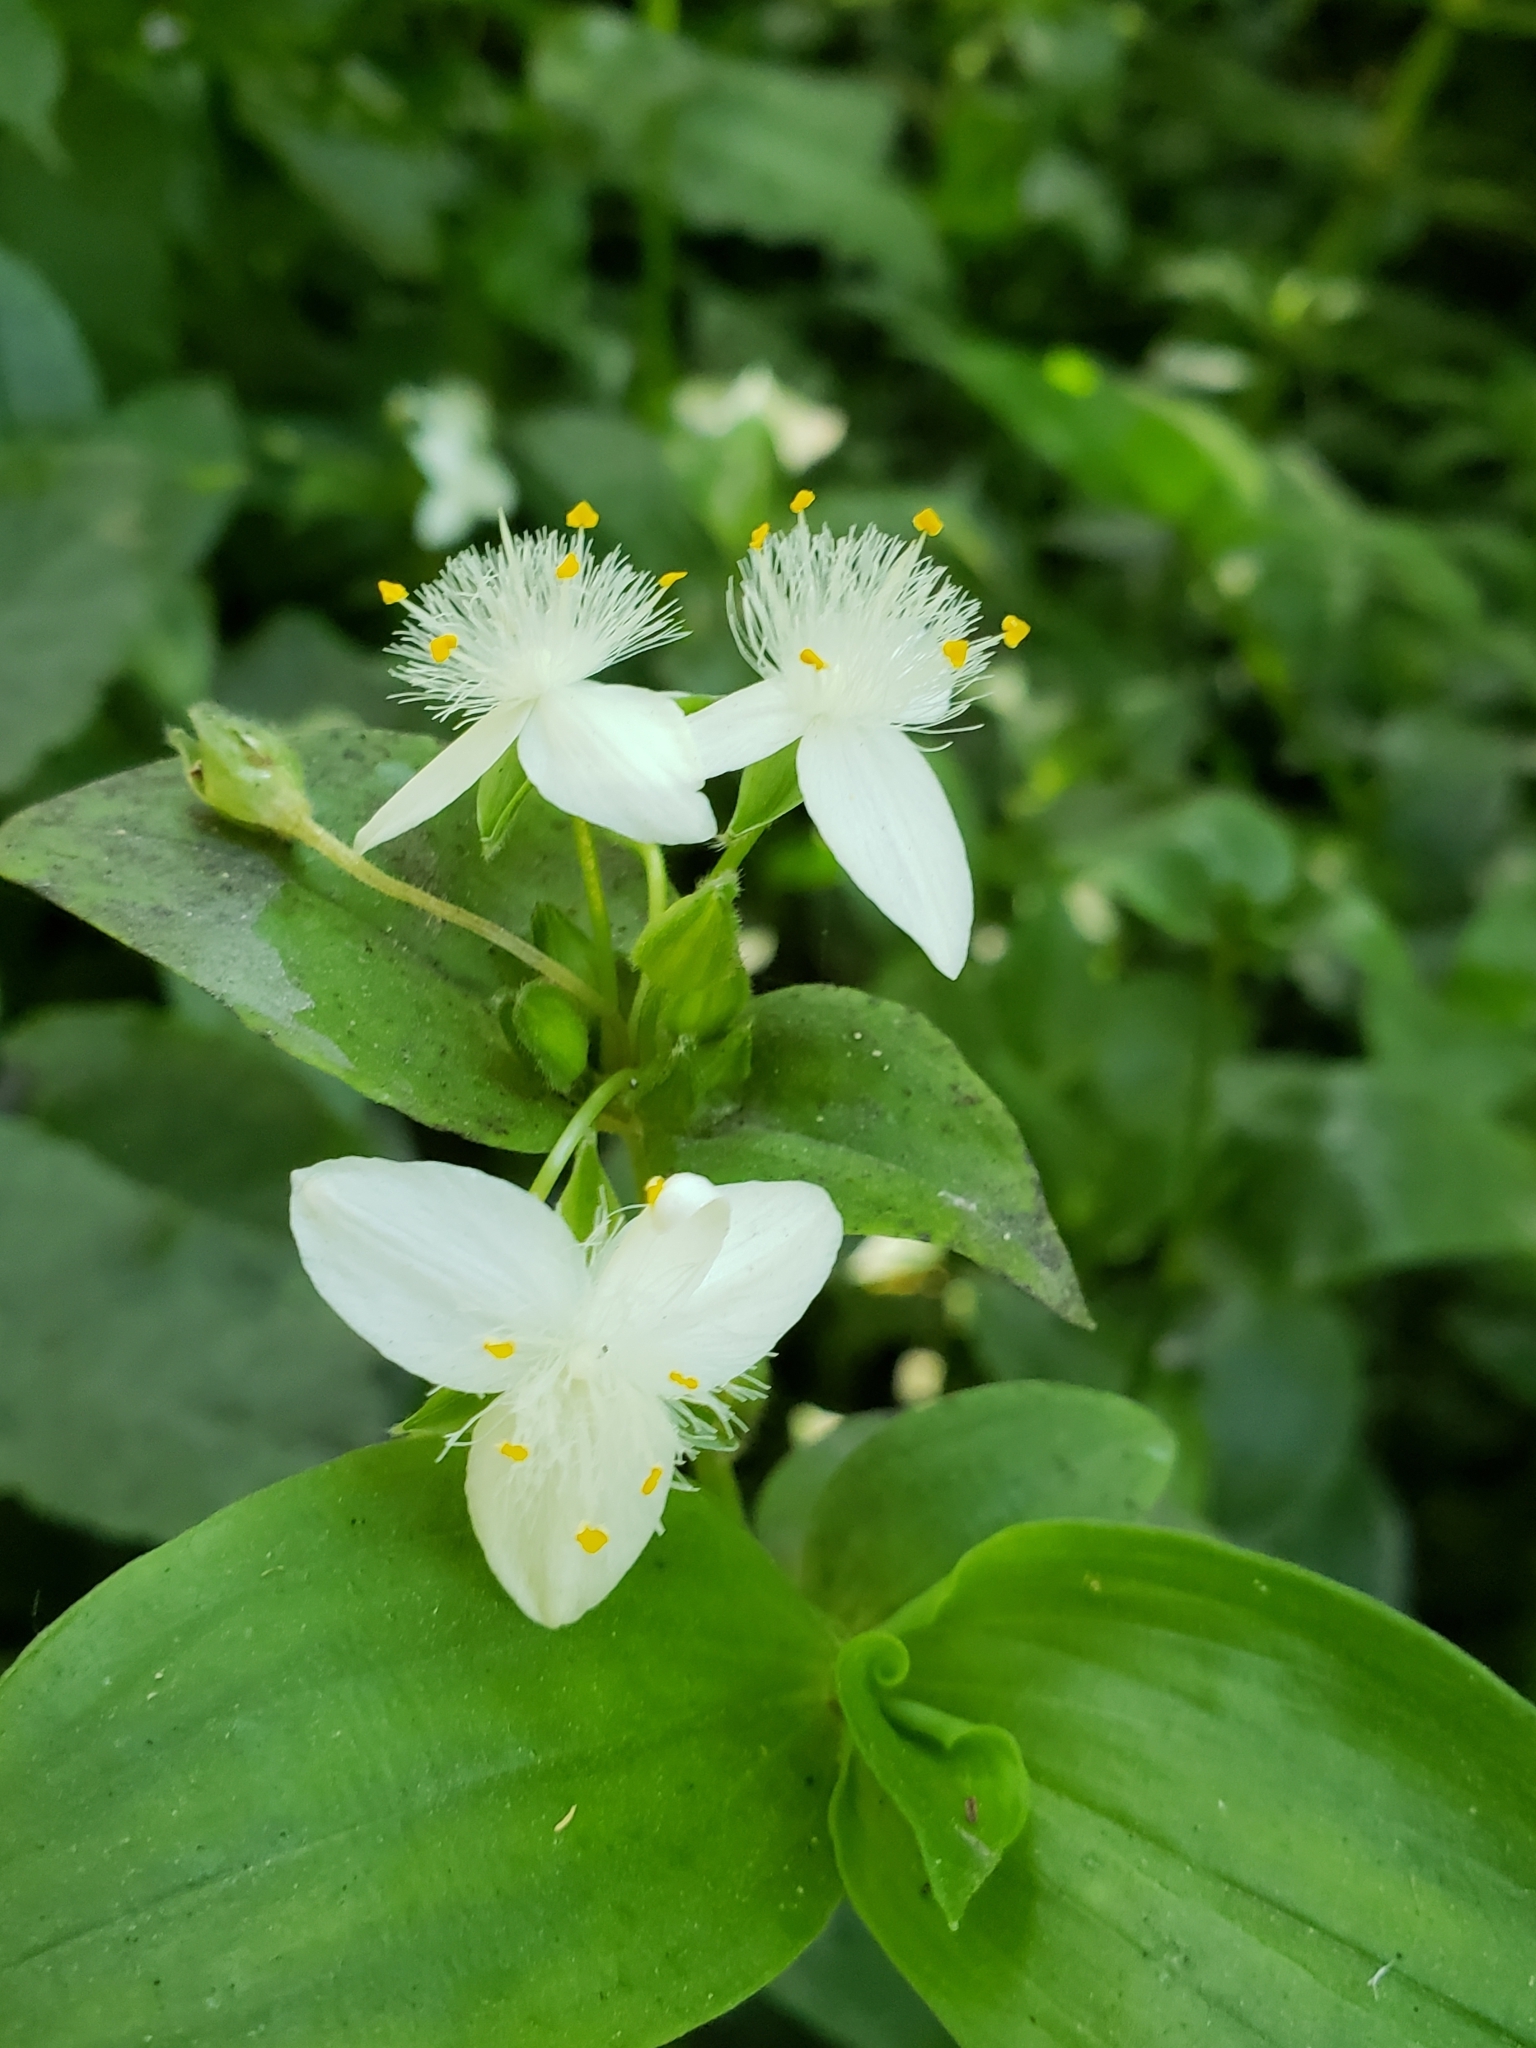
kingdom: Plantae
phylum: Tracheophyta
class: Liliopsida
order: Commelinales
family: Commelinaceae
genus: Tradescantia
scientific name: Tradescantia fluminensis
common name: Wandering-jew
